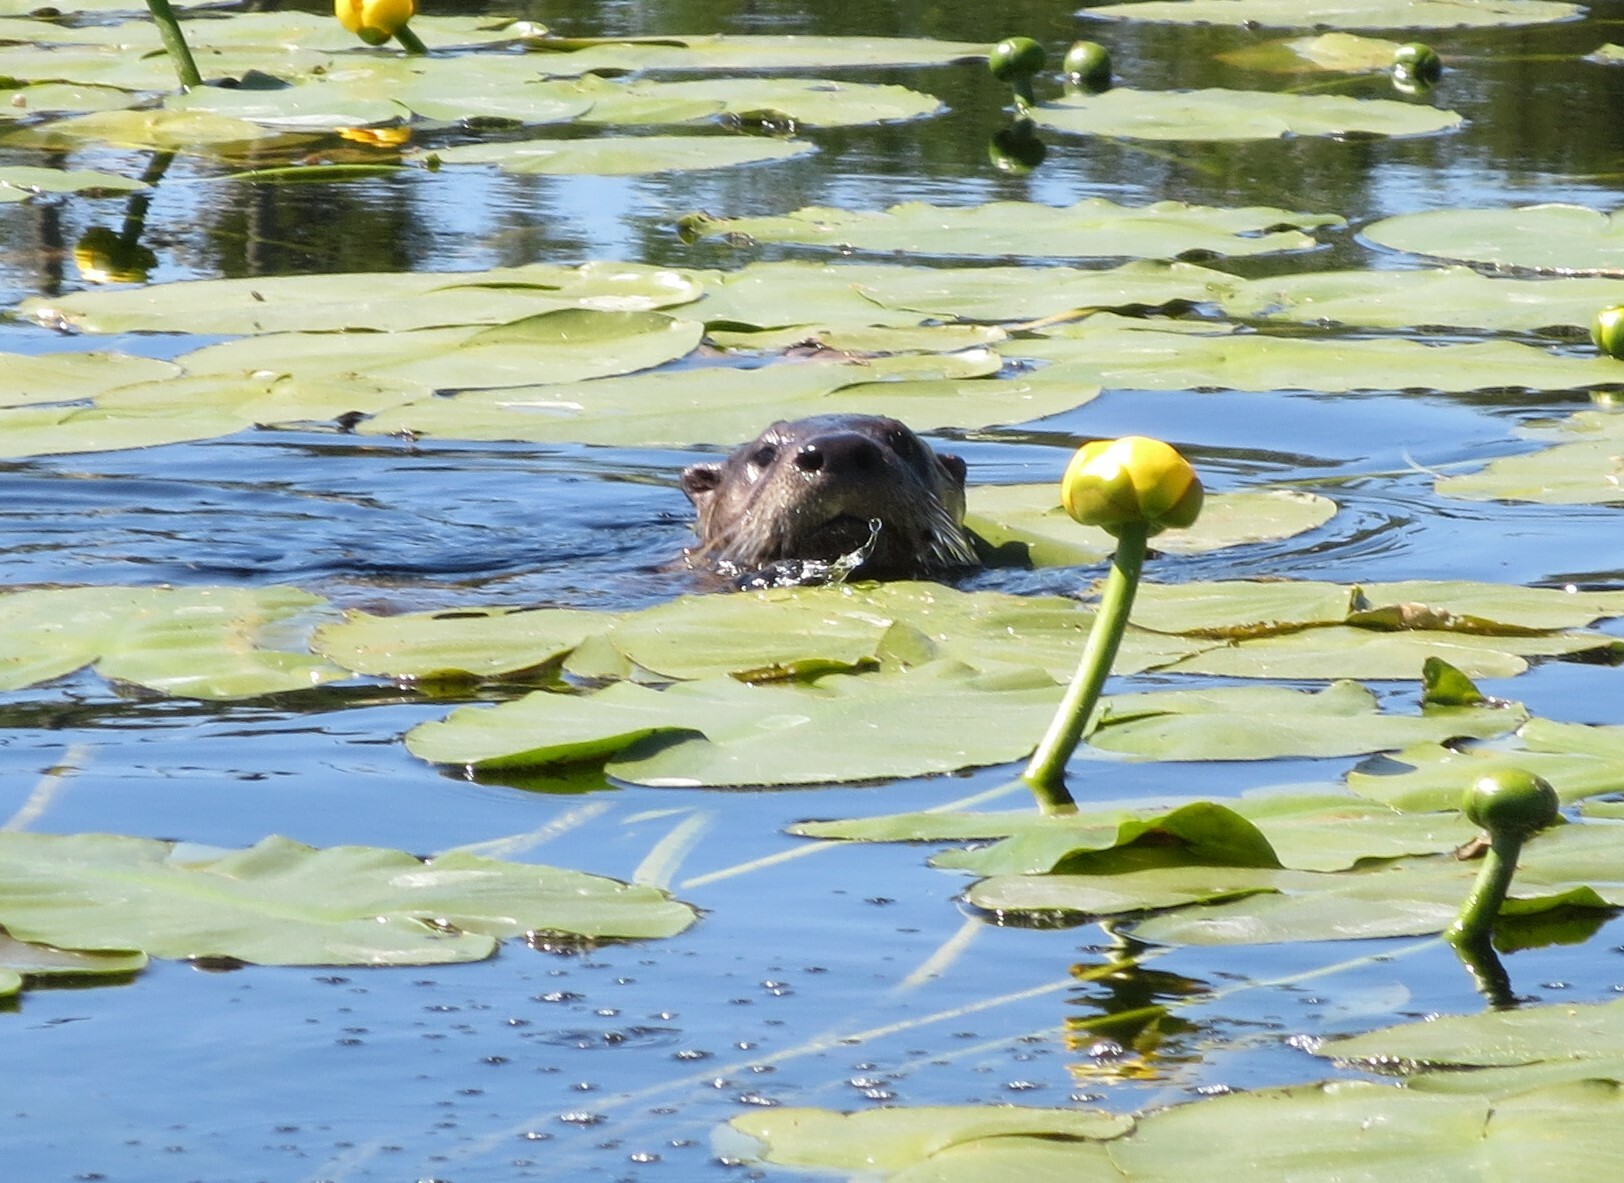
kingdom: Animalia
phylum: Chordata
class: Mammalia
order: Carnivora
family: Mustelidae
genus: Lontra
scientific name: Lontra canadensis
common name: North american river otter
